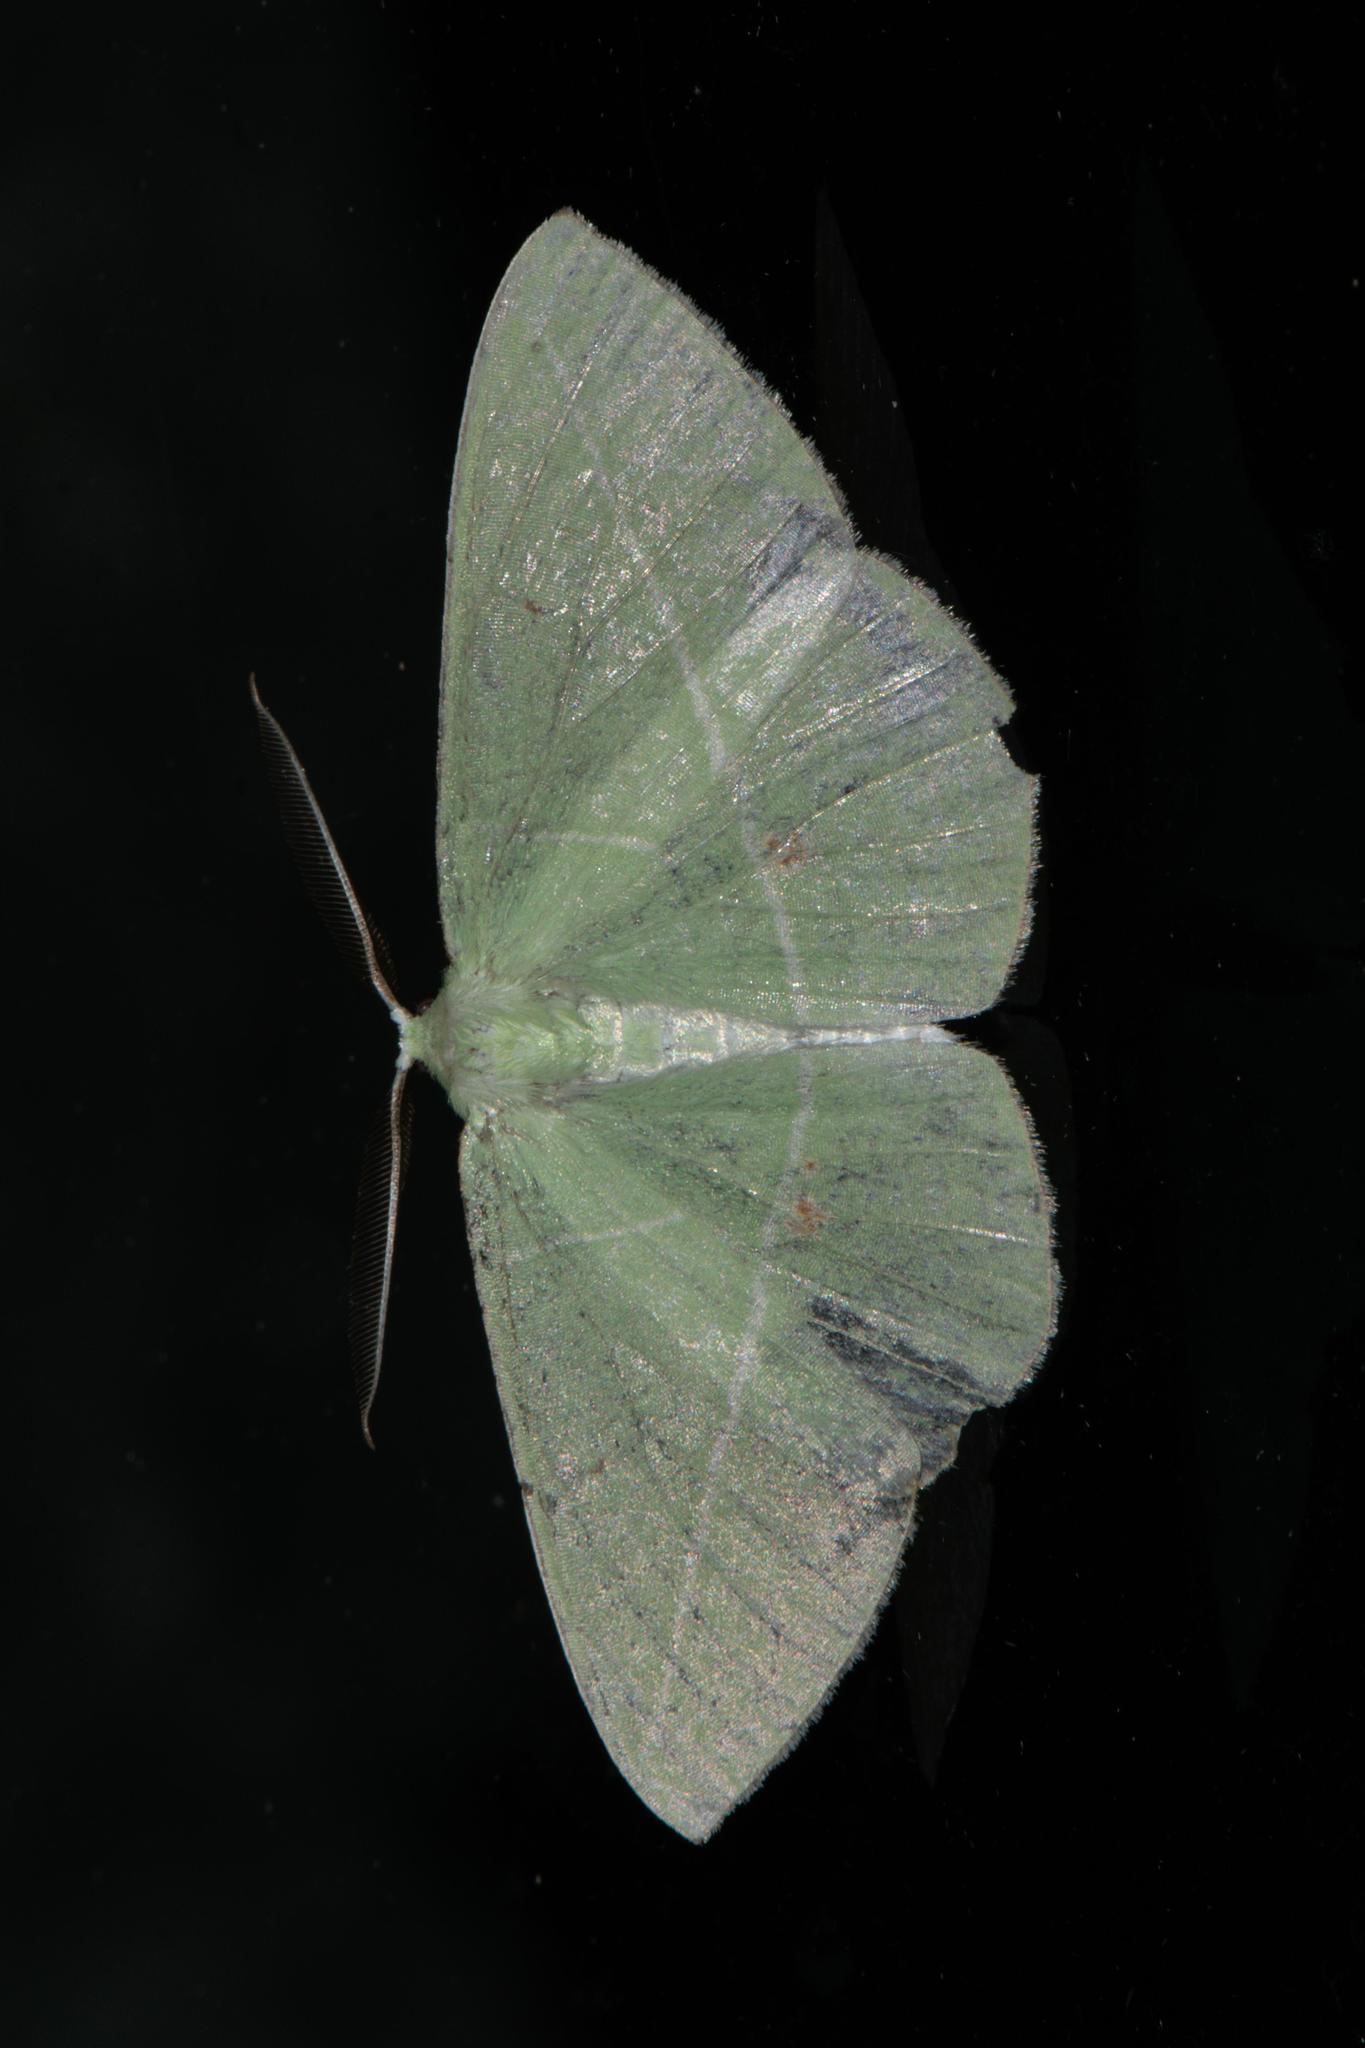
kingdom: Animalia
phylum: Arthropoda
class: Insecta
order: Lepidoptera
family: Geometridae
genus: Tanaoctenia
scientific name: Tanaoctenia dehaliaria
